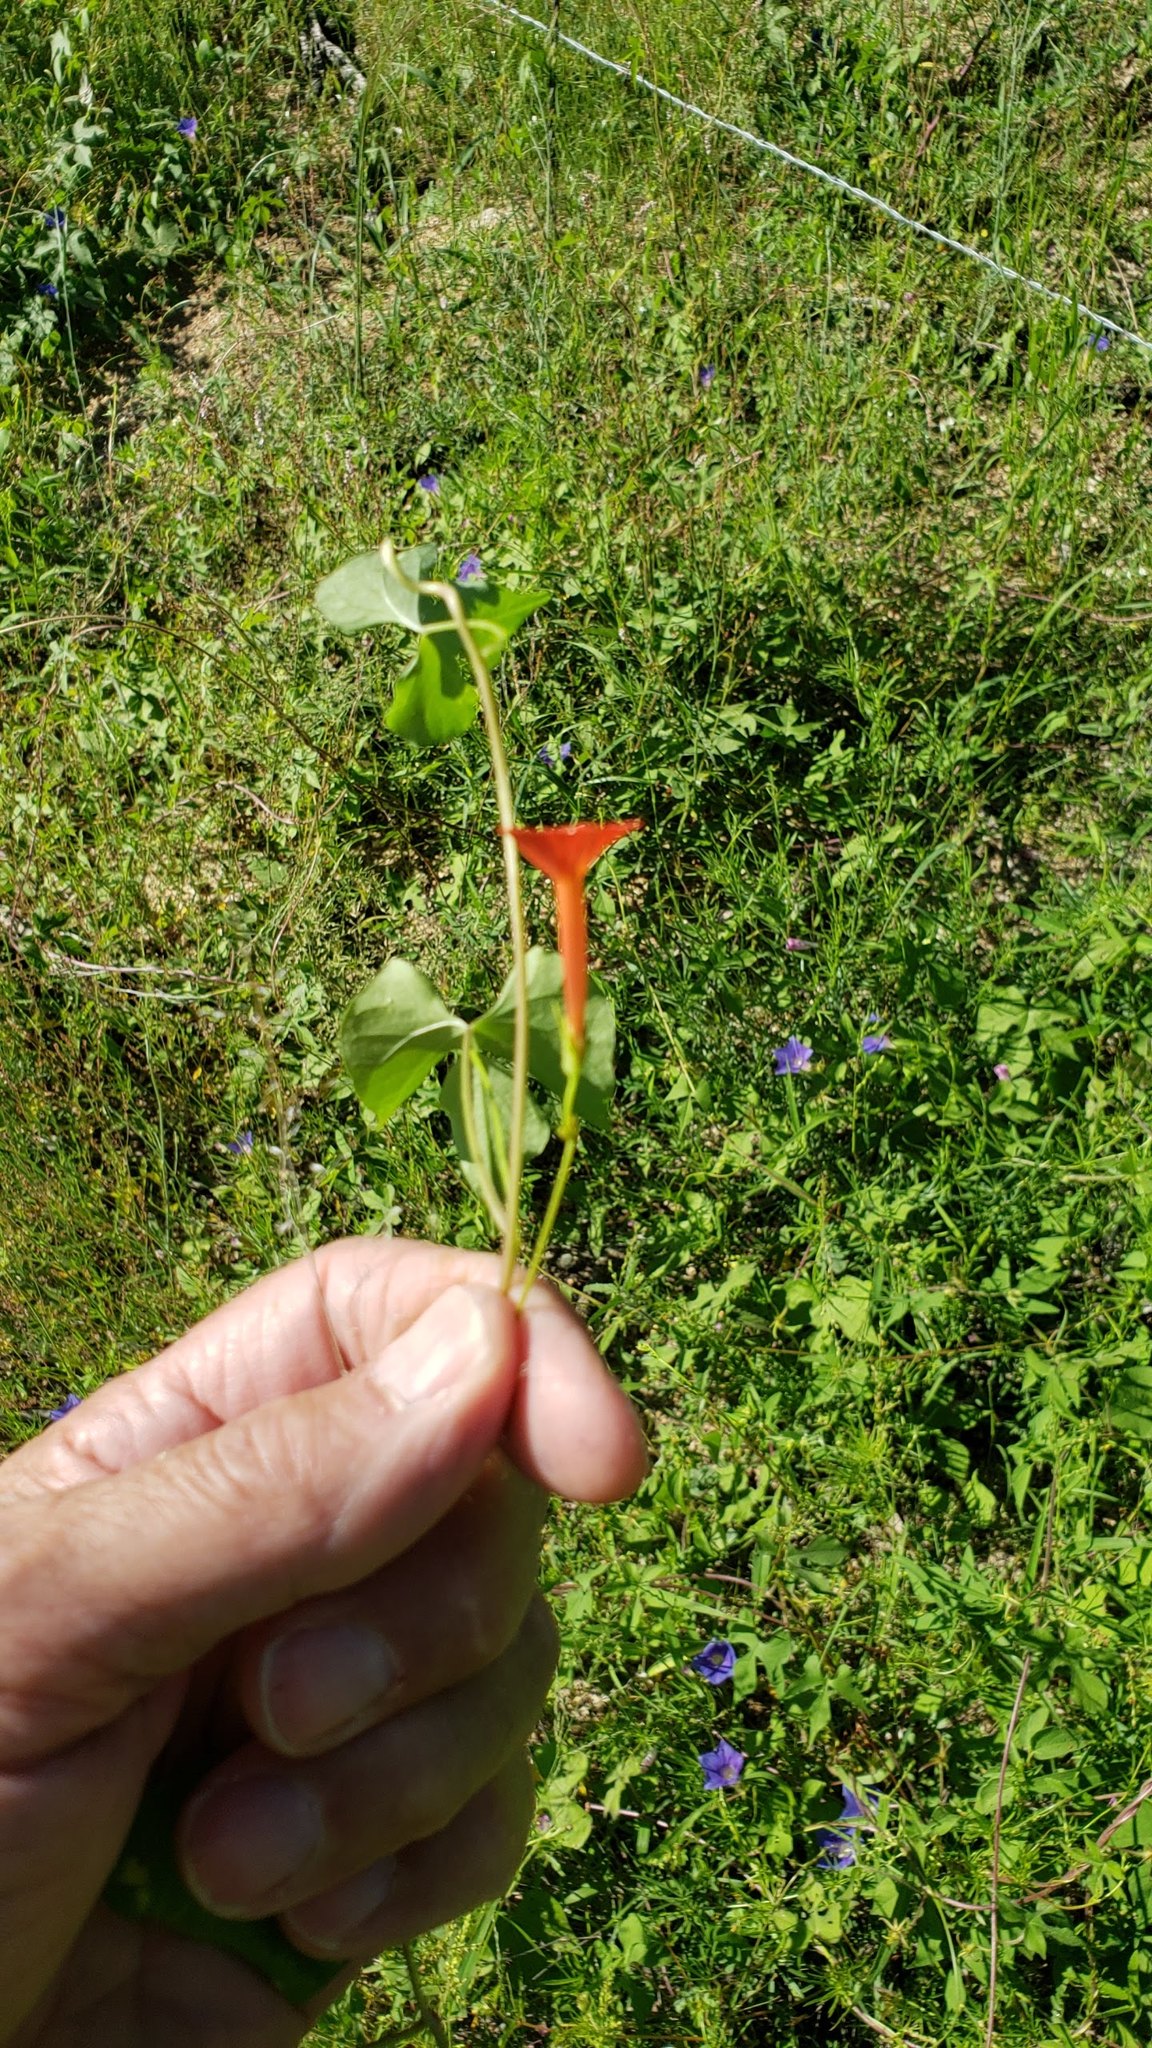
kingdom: Plantae
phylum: Tracheophyta
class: Magnoliopsida
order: Solanales
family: Convolvulaceae
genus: Ipomoea
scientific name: Ipomoea cristulata
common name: Trans-pecos morning-glory
